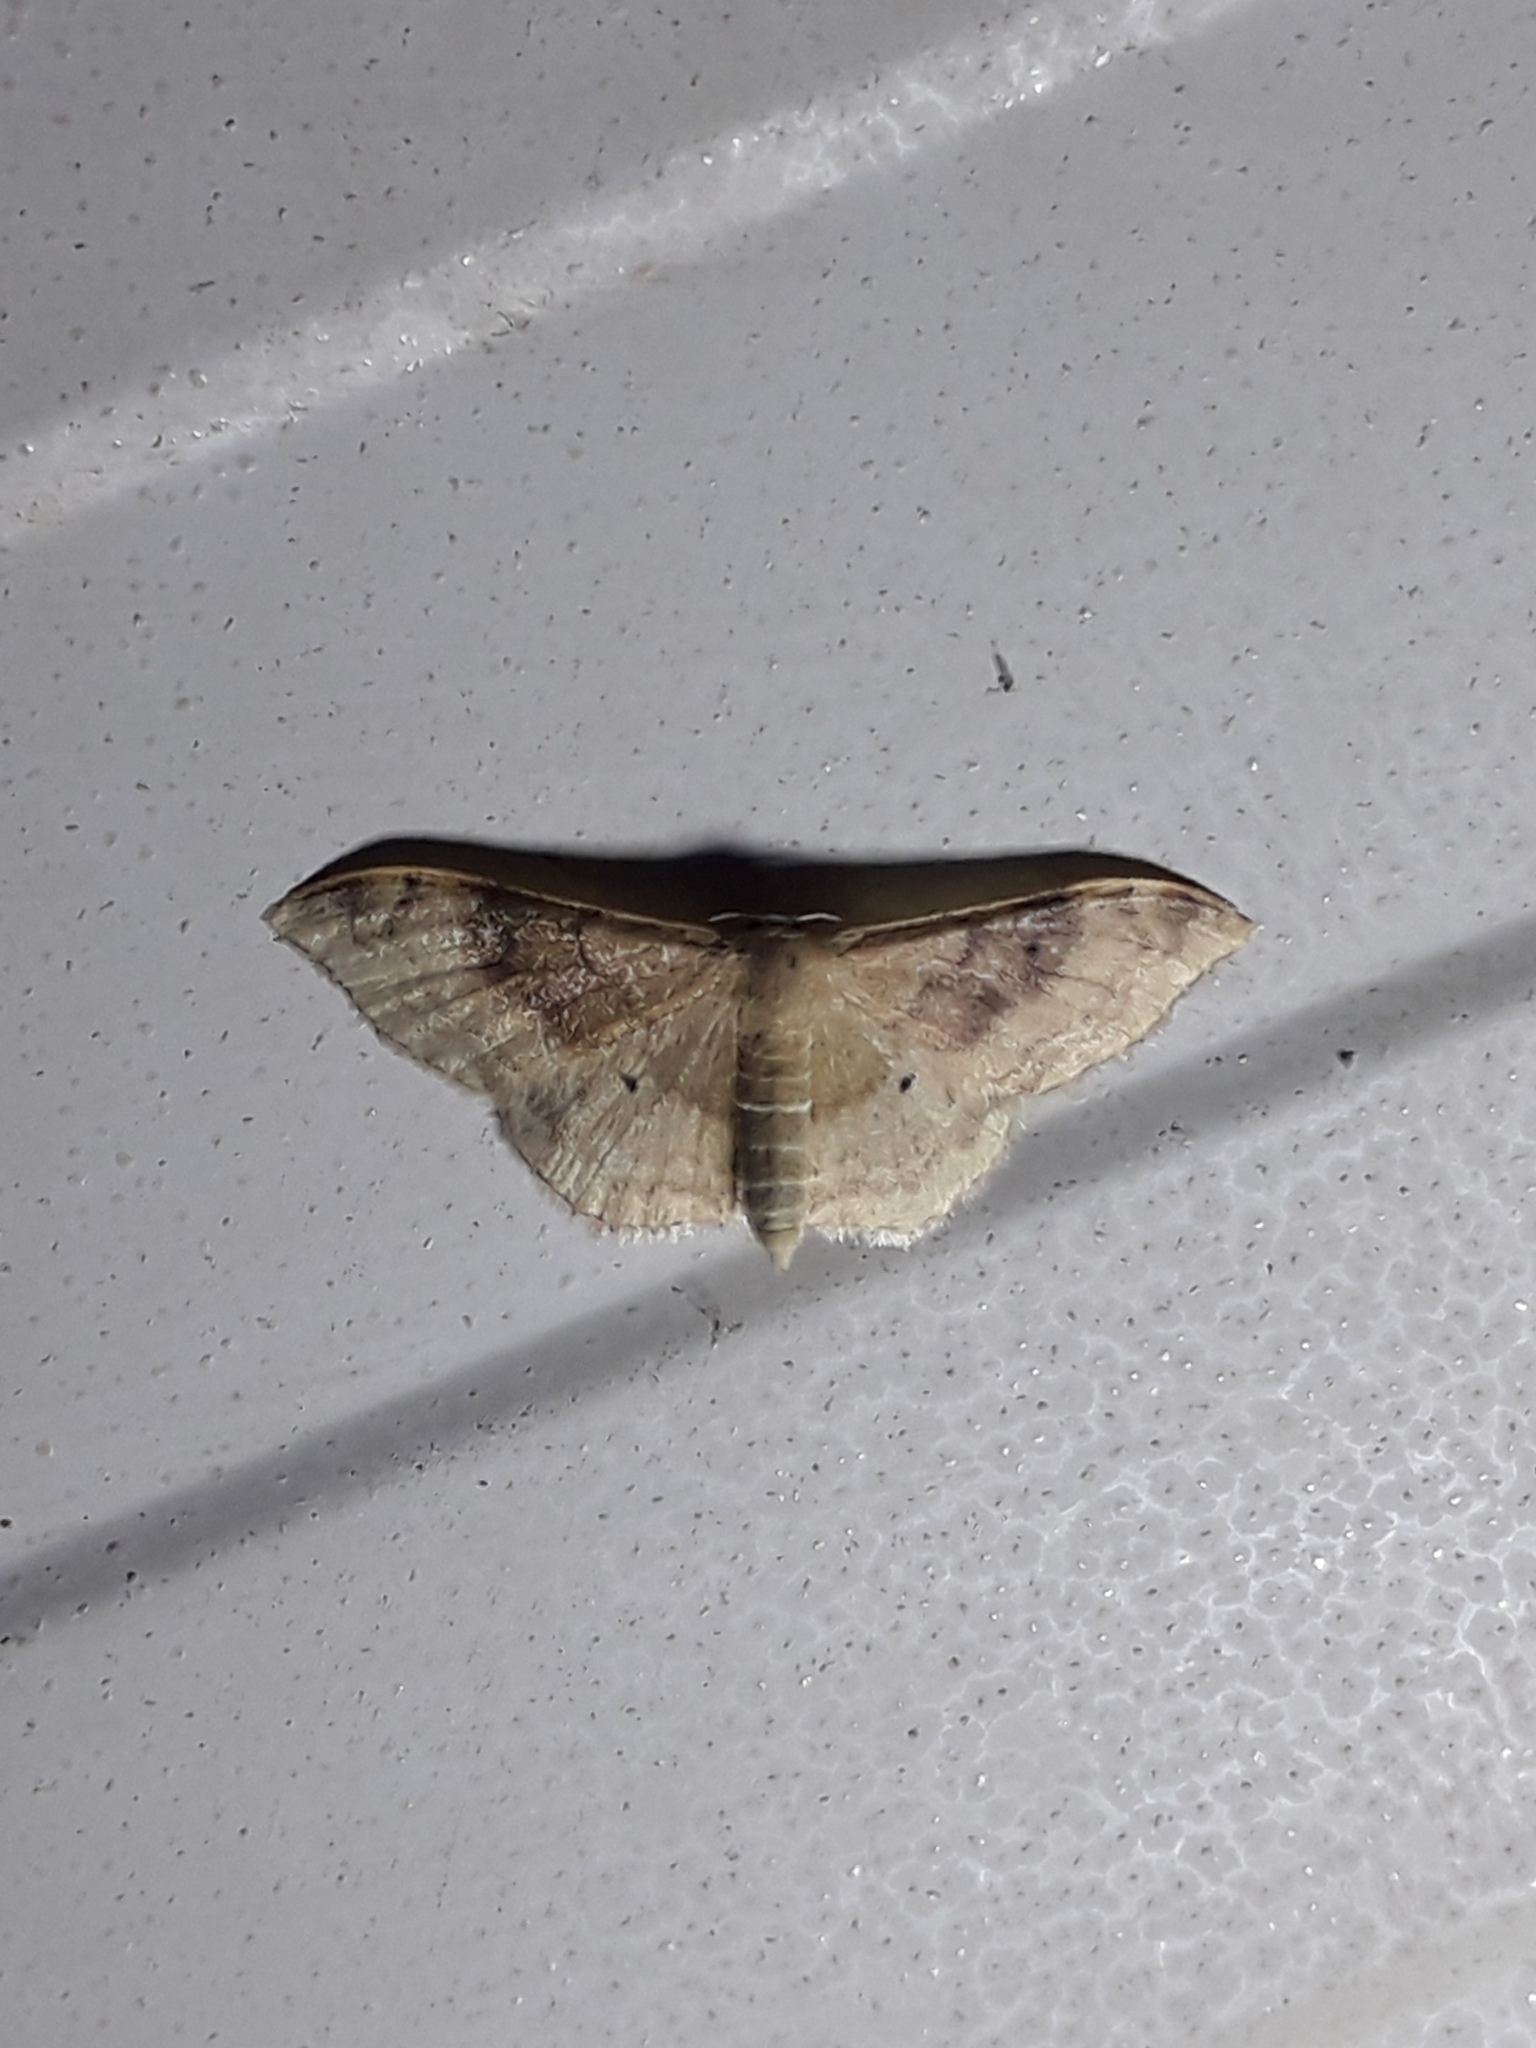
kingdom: Animalia
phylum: Arthropoda
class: Insecta
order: Lepidoptera
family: Geometridae
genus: Idaea
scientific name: Idaea degeneraria
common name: Portland ribbon wave
